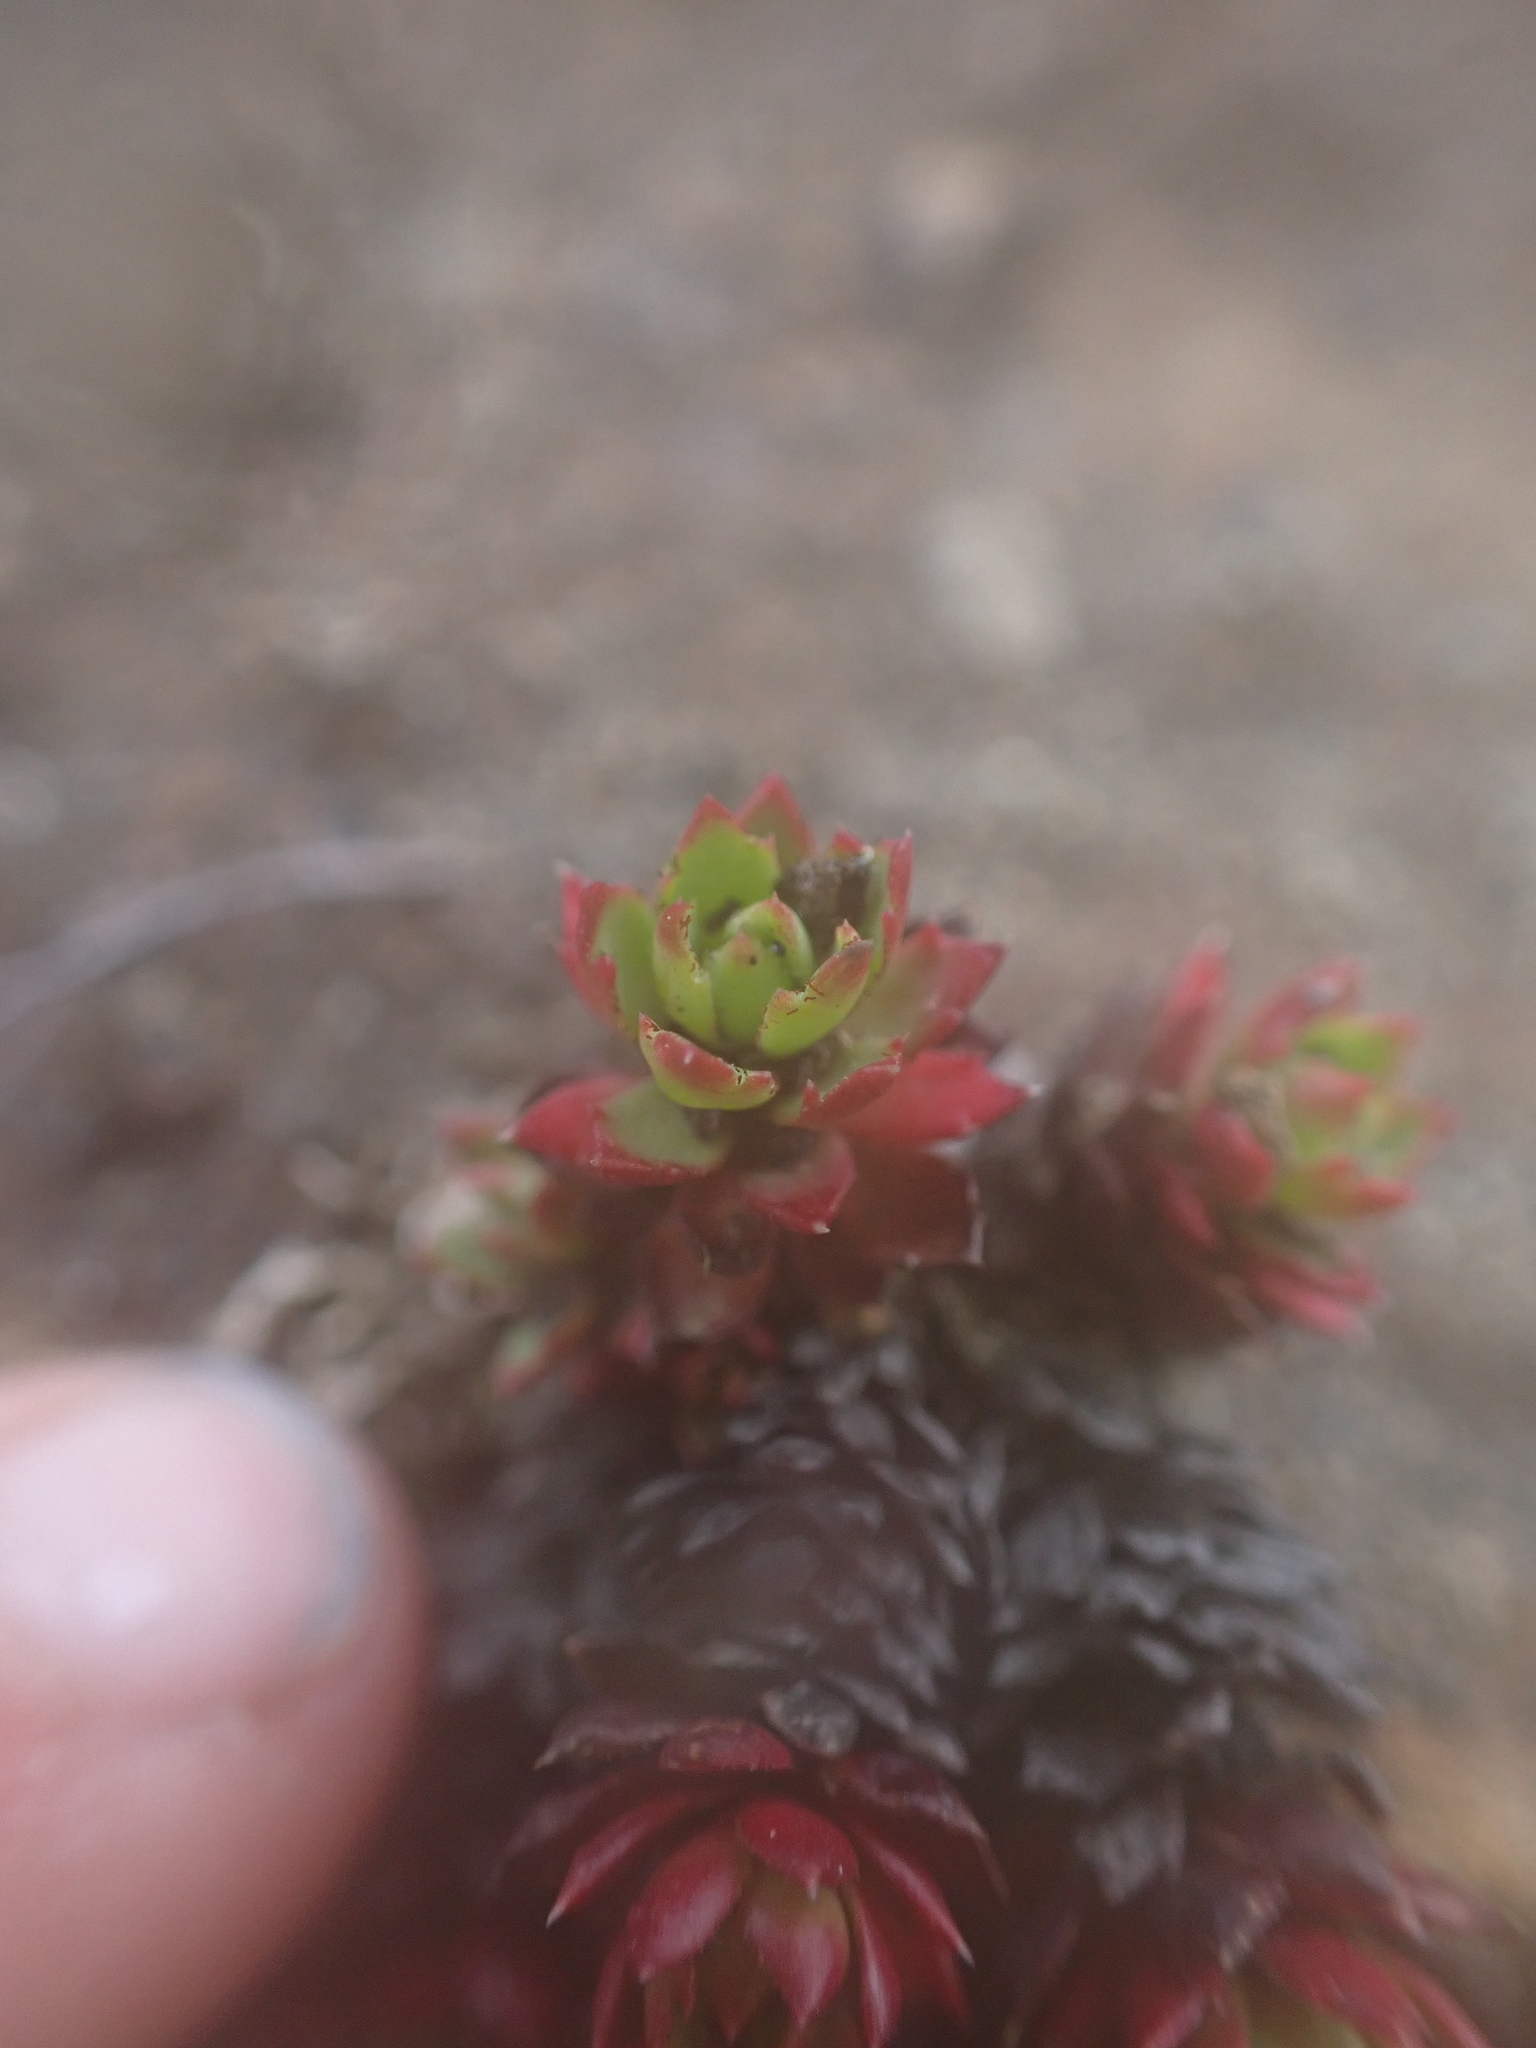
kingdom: Plantae
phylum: Tracheophyta
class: Magnoliopsida
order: Saxifragales
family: Saxifragaceae
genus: Saxifraga
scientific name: Saxifraga tricuspidata
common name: Prickly saxifrage
